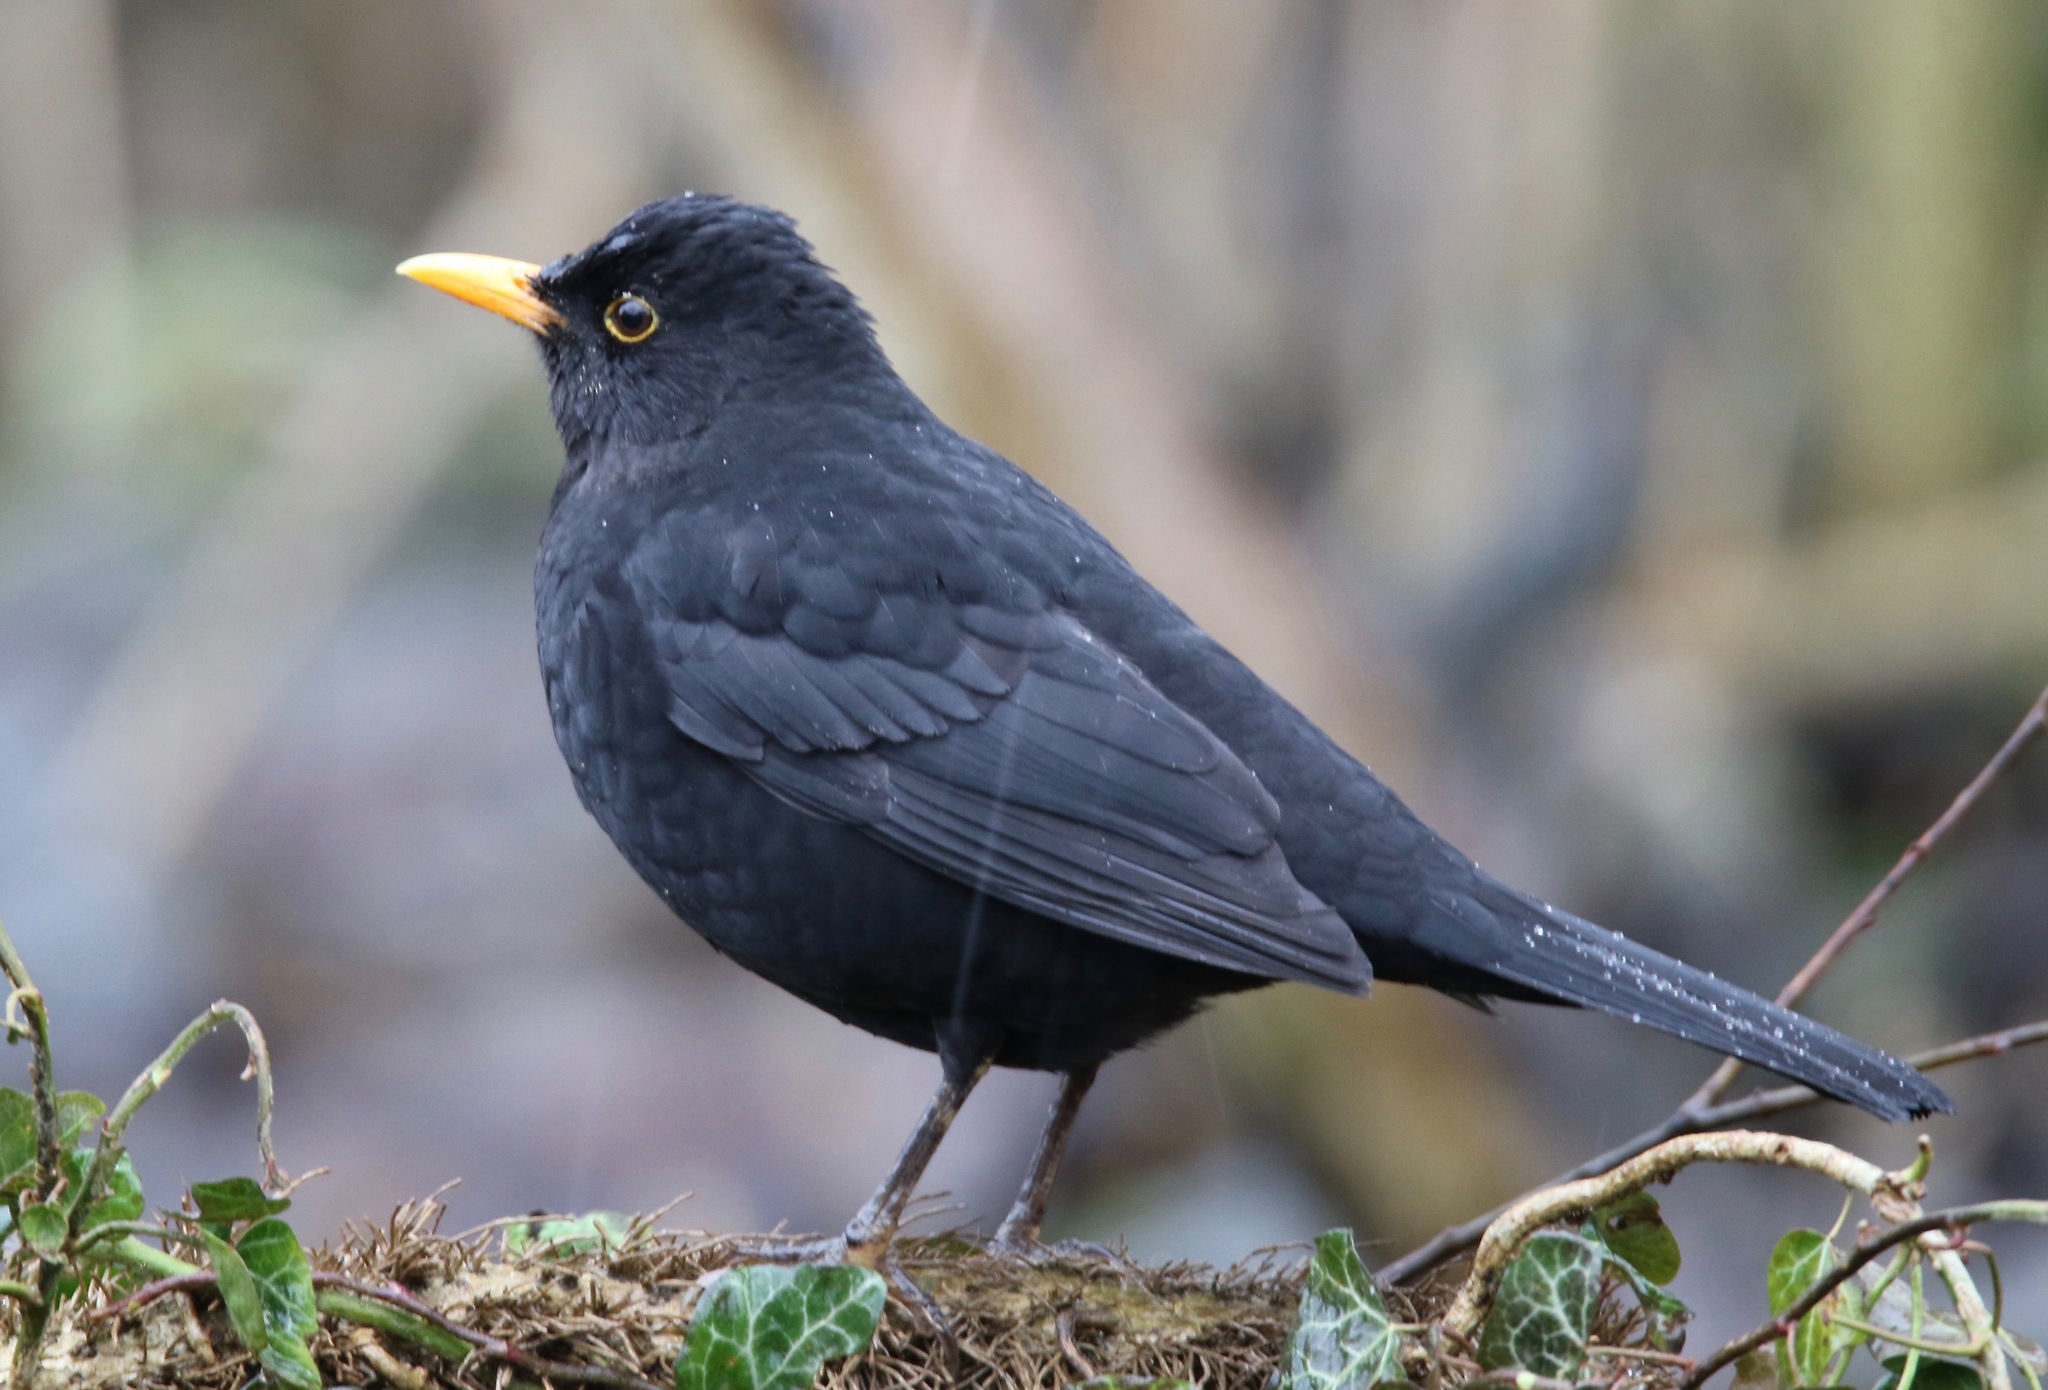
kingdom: Animalia
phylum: Chordata
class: Aves
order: Passeriformes
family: Turdidae
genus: Turdus
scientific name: Turdus merula
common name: Common blackbird
